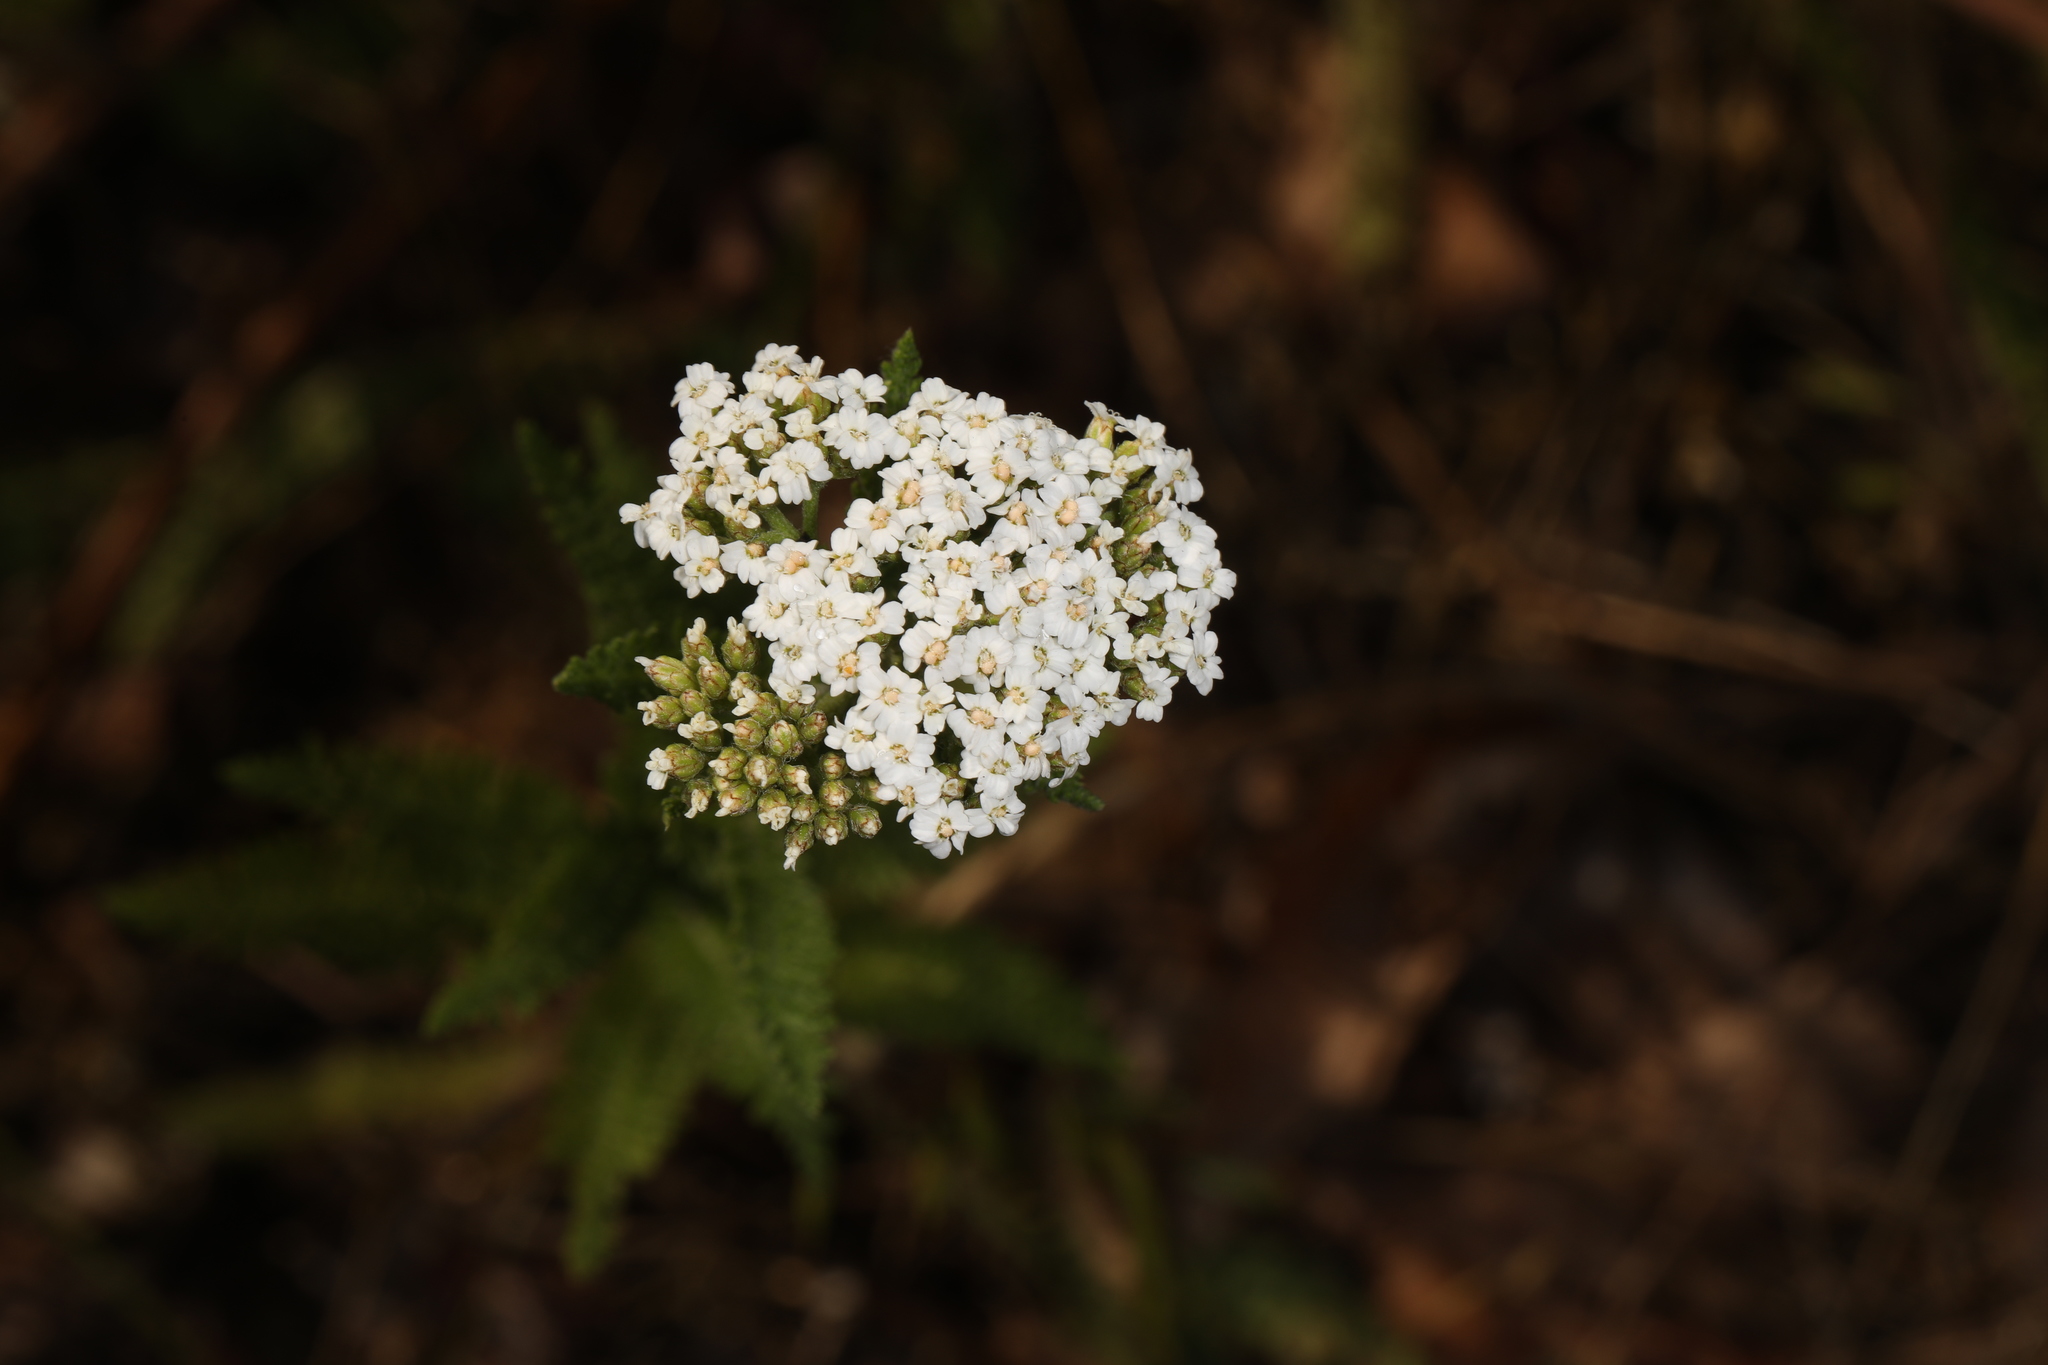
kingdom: Plantae
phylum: Tracheophyta
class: Magnoliopsida
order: Asterales
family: Asteraceae
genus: Achillea
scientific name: Achillea millefolium
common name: Yarrow
